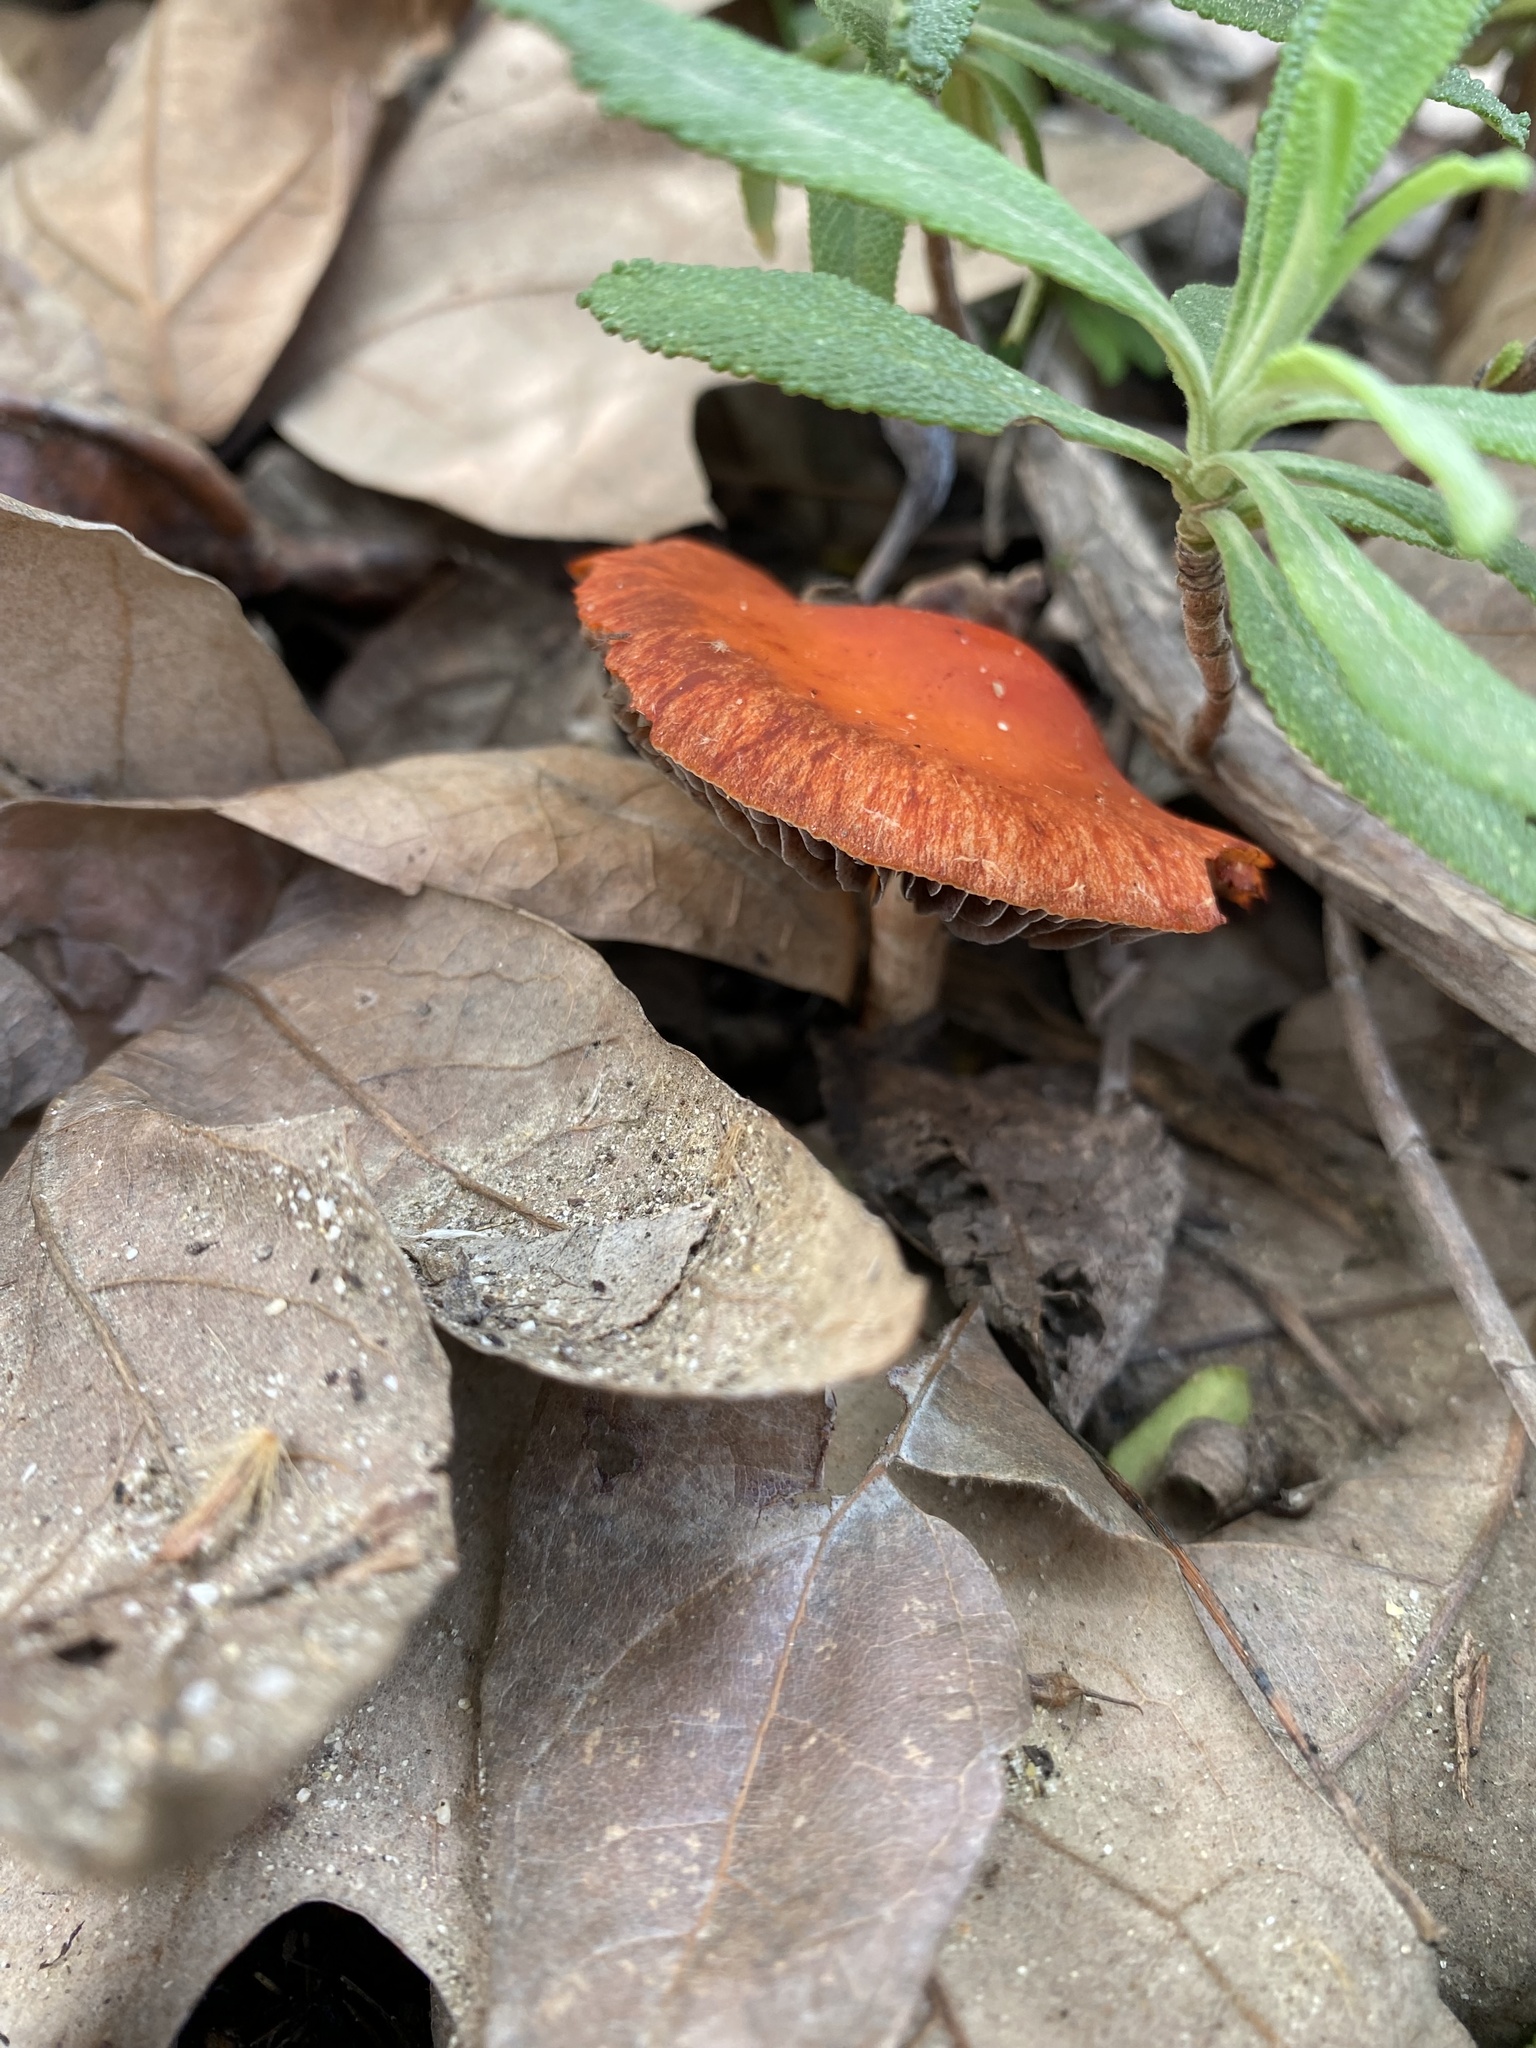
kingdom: Fungi
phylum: Basidiomycota
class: Agaricomycetes
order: Agaricales
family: Strophariaceae
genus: Leratiomyces
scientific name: Leratiomyces ceres
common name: Redlead roundhead
